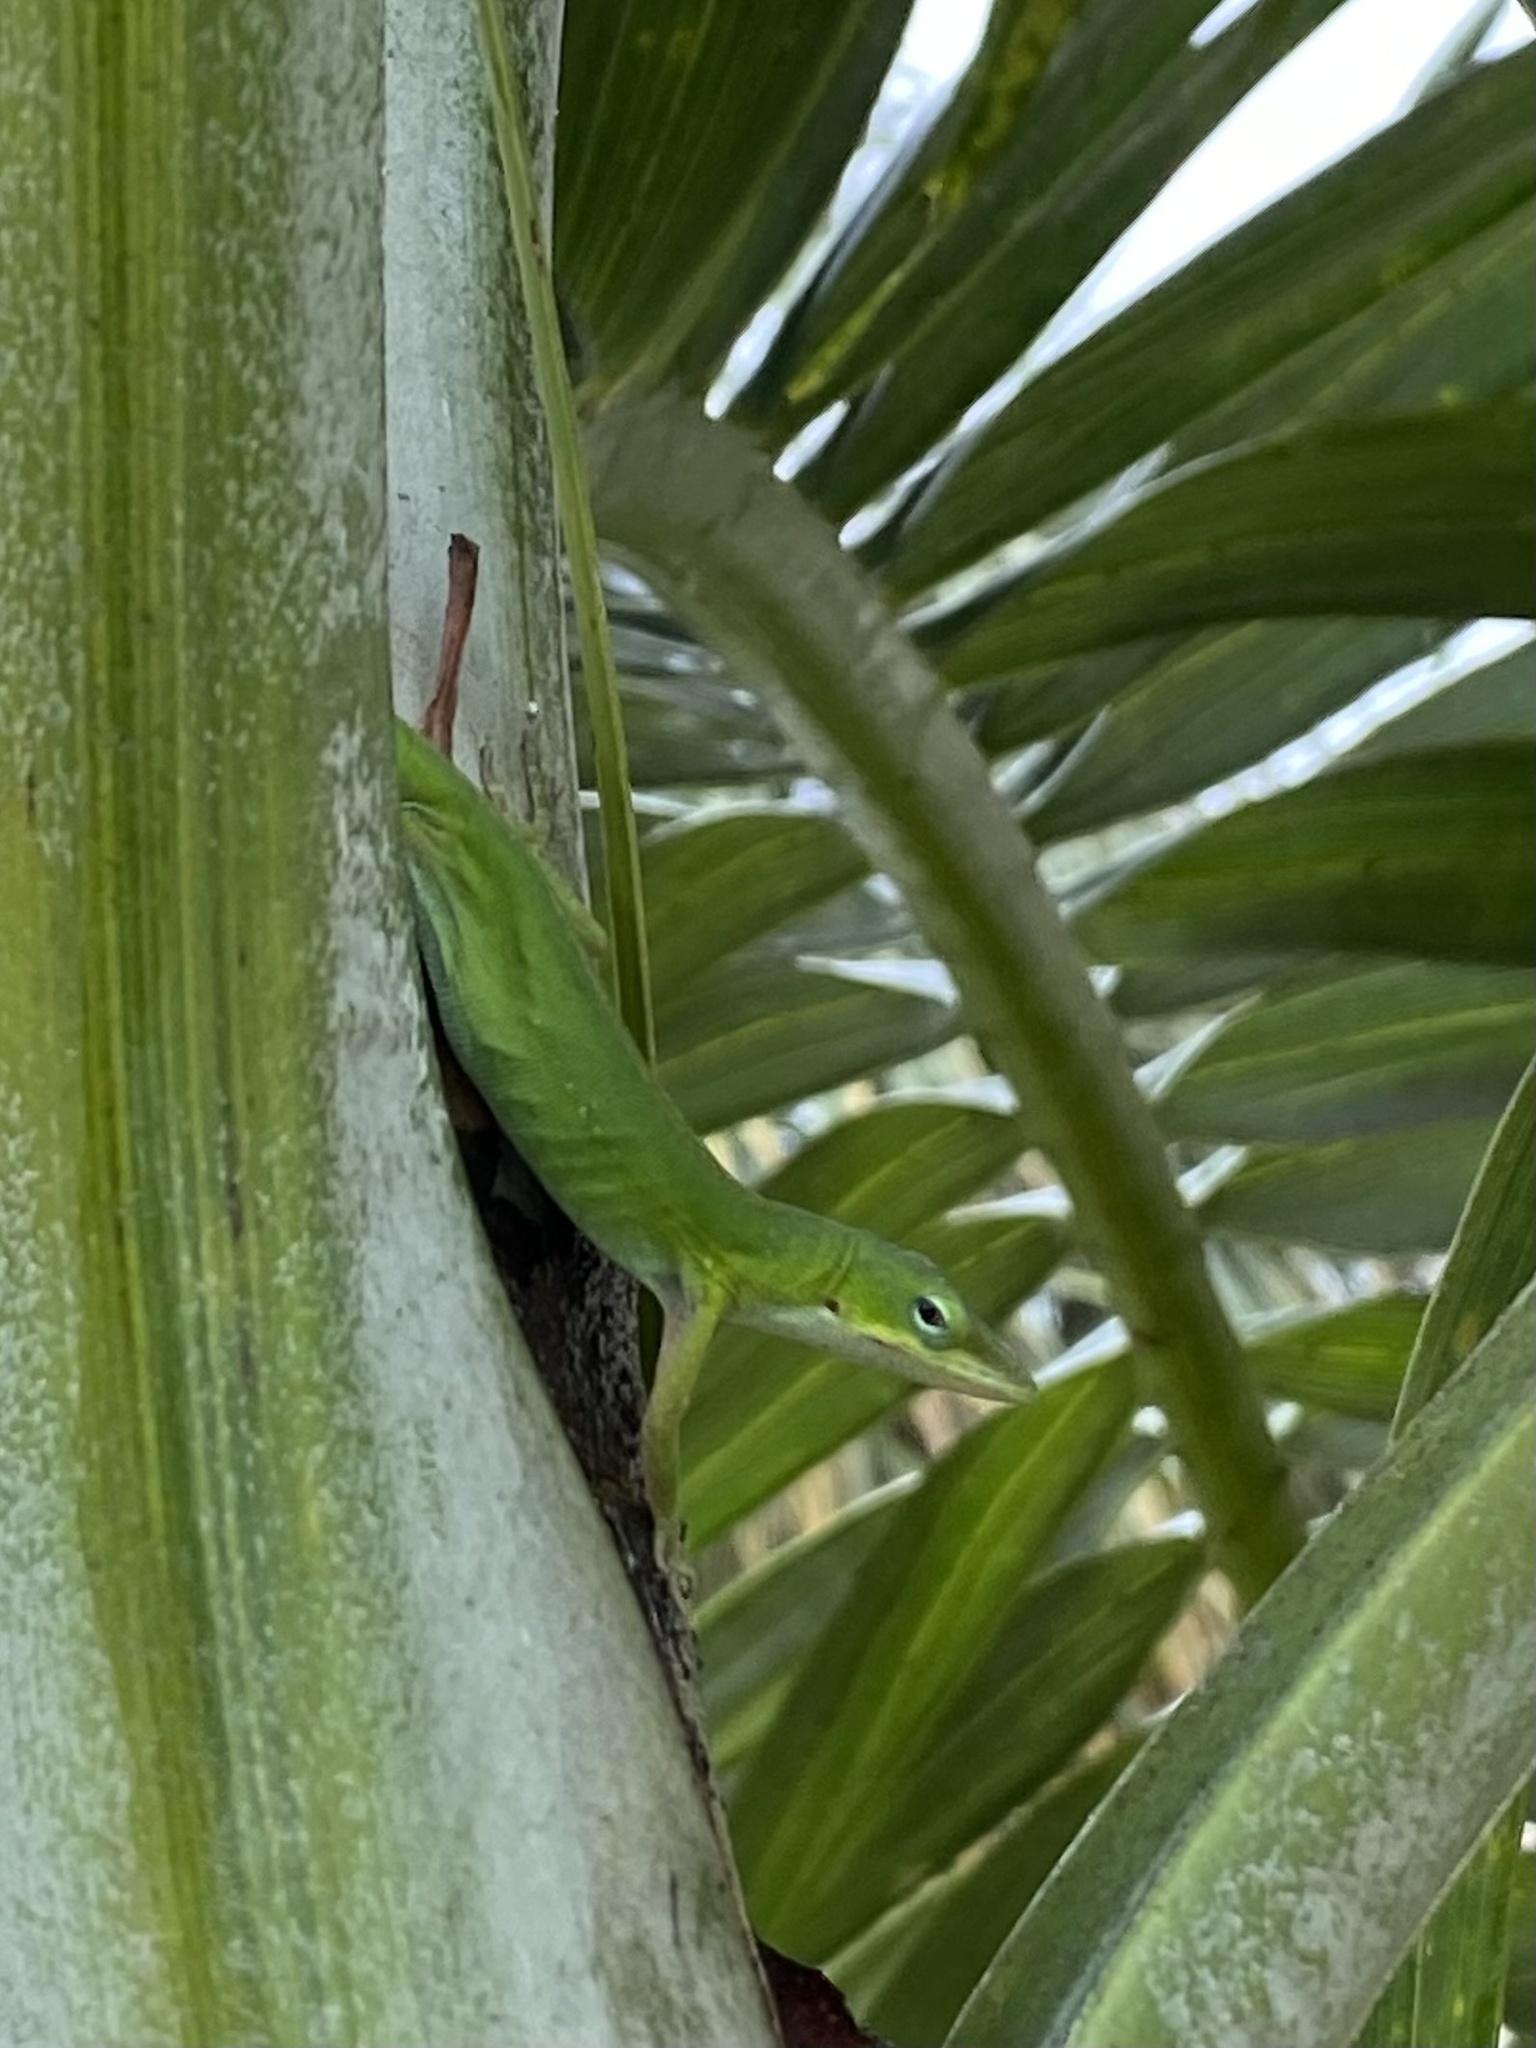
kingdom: Animalia
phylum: Chordata
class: Squamata
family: Dactyloidae
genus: Anolis
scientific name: Anolis carolinensis
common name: Green anole
